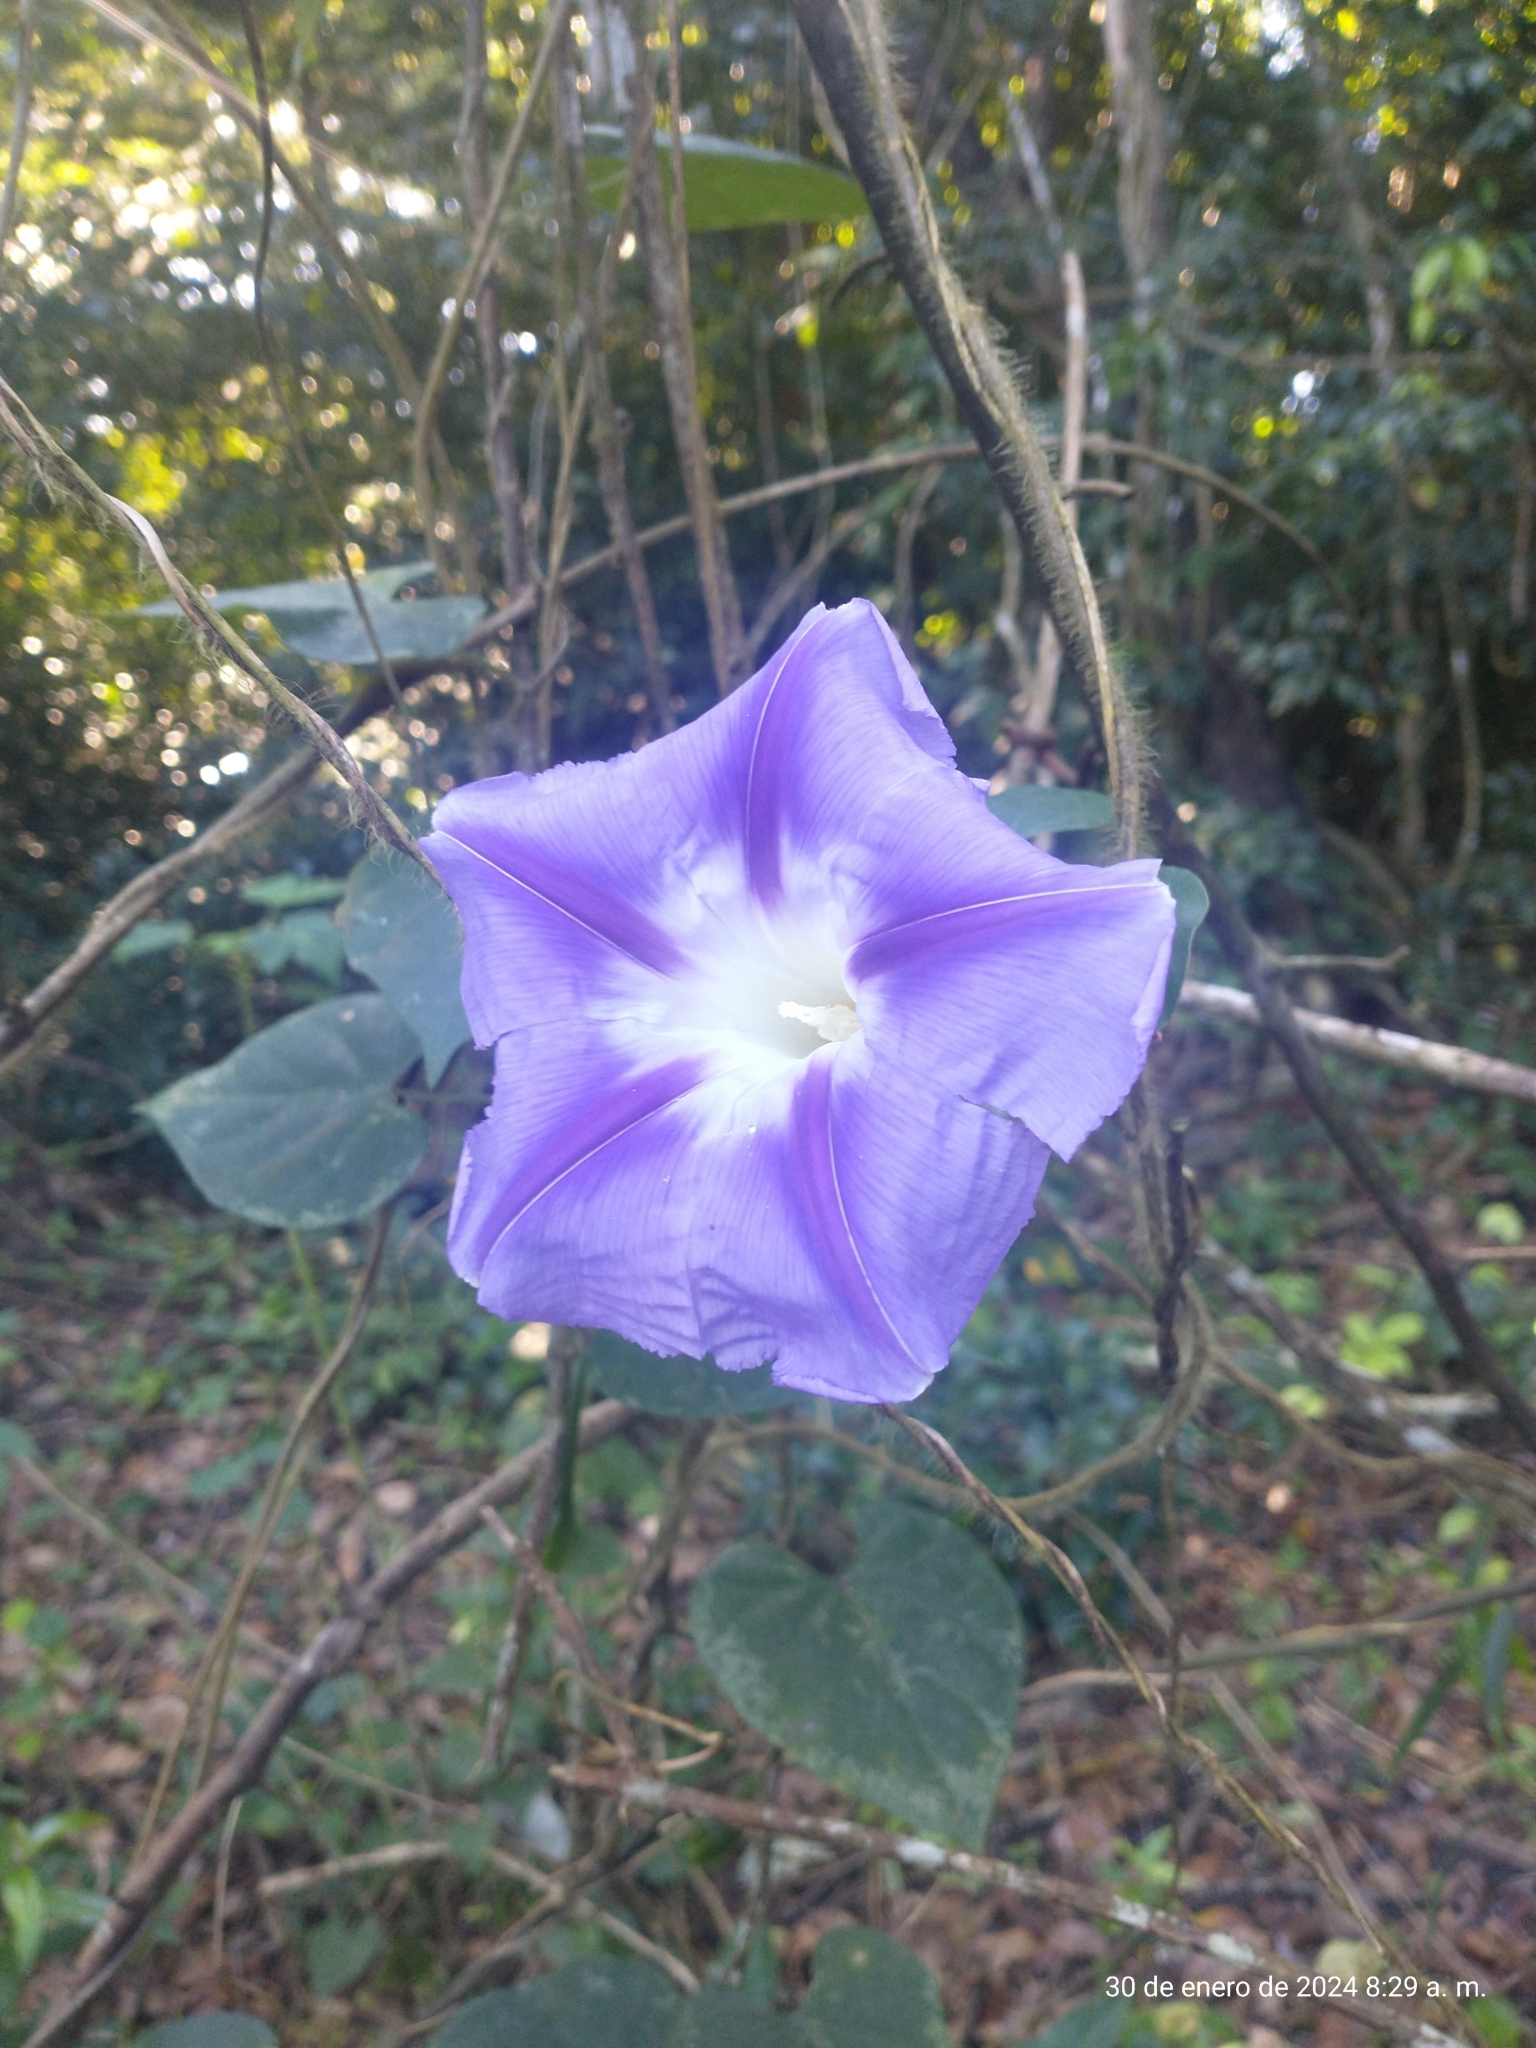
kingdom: Plantae
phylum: Tracheophyta
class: Magnoliopsida
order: Solanales
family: Convolvulaceae
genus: Ipomoea
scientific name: Ipomoea clavata
